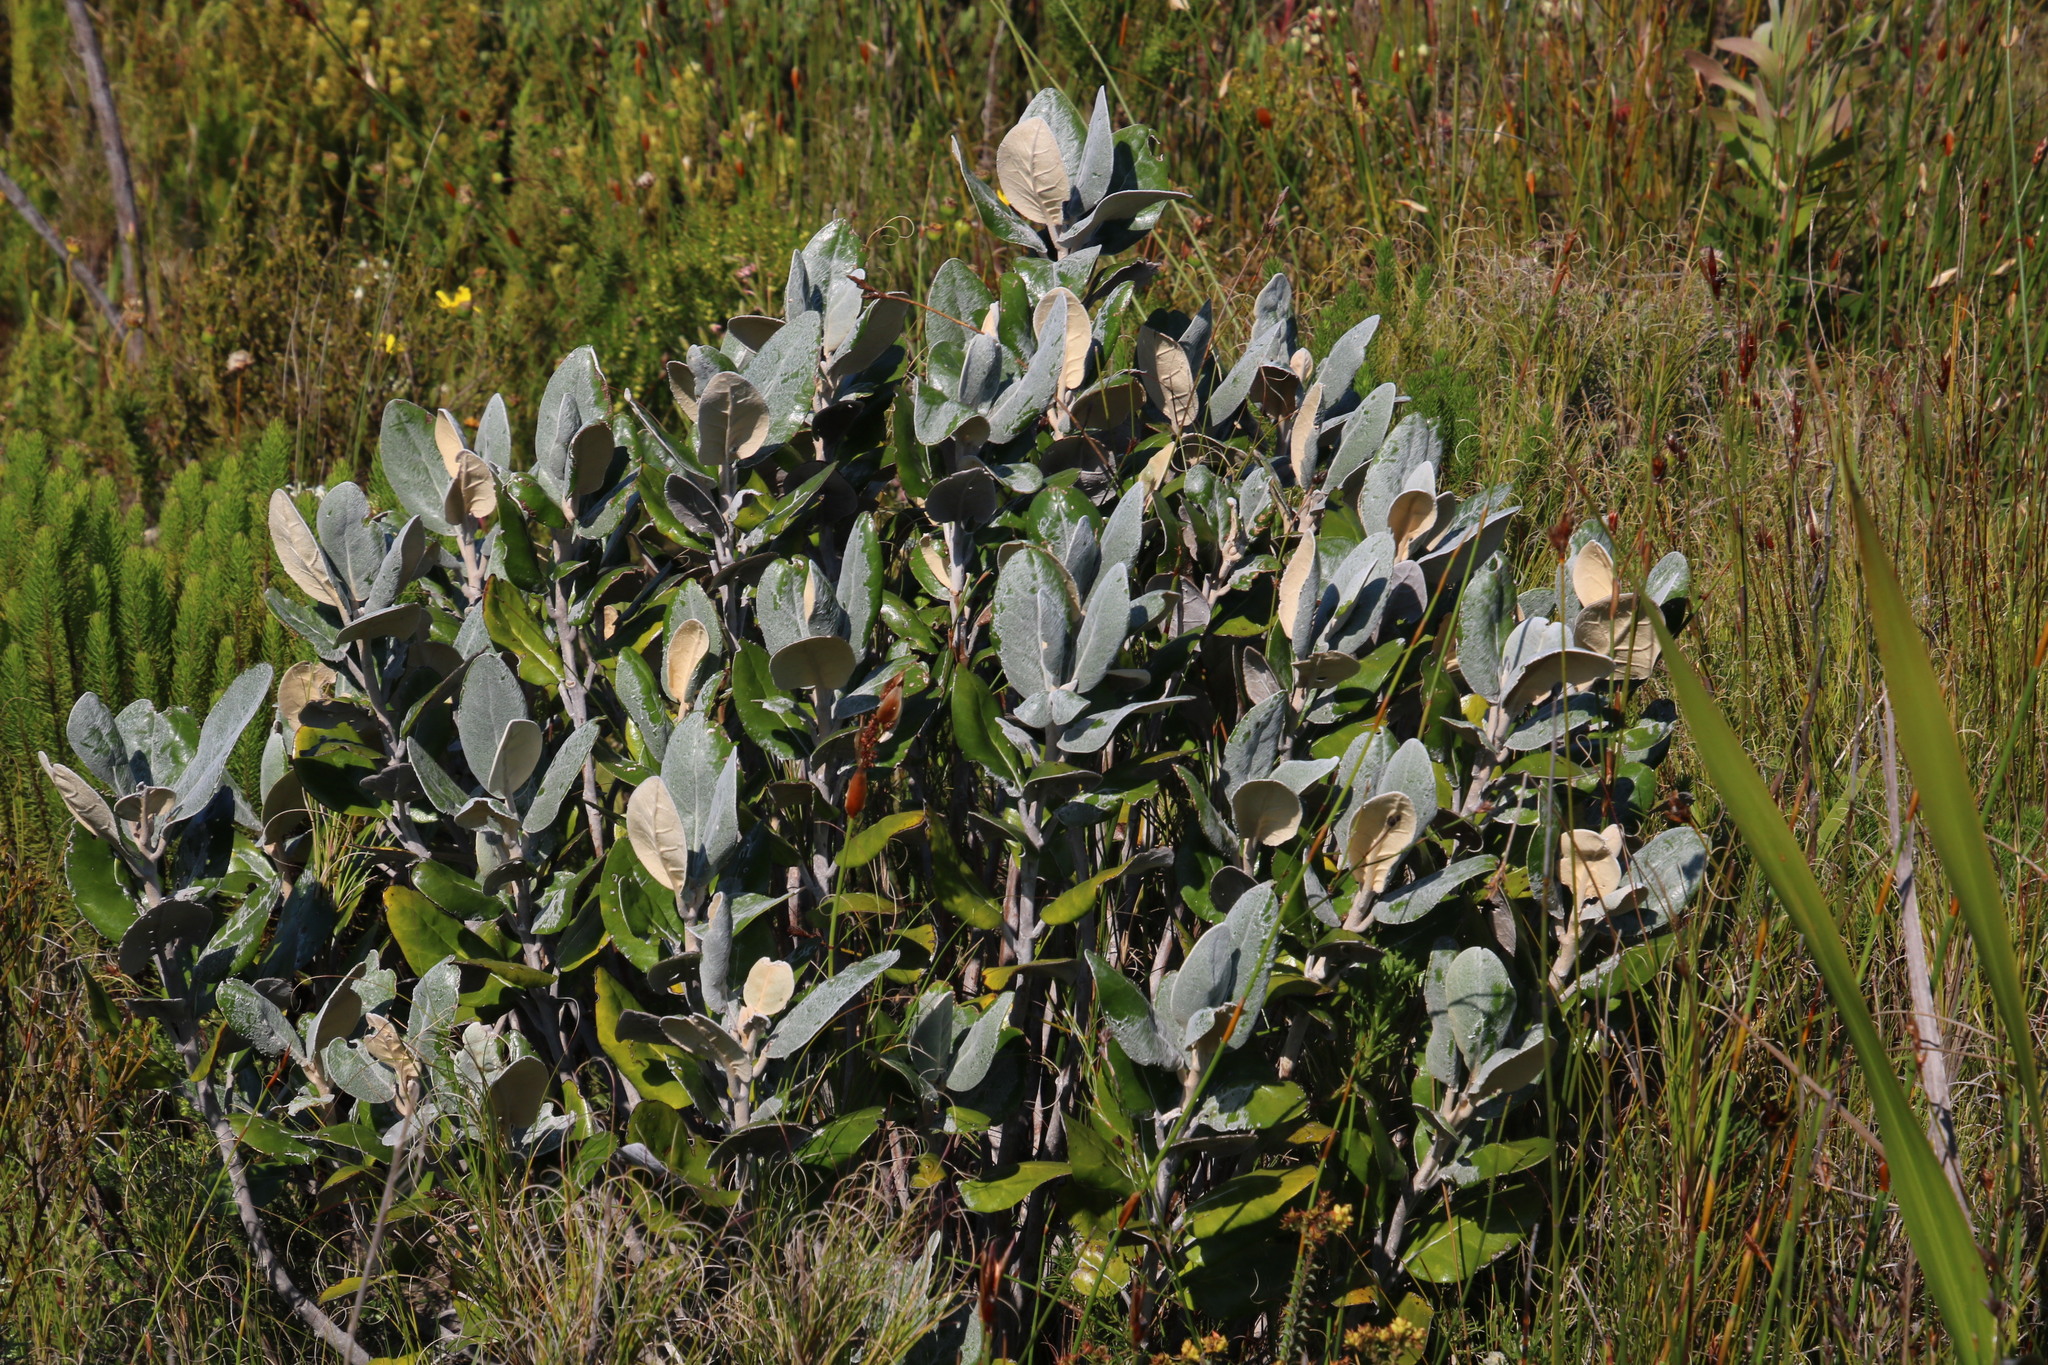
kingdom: Plantae
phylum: Tracheophyta
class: Magnoliopsida
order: Asterales
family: Asteraceae
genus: Capelio
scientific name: Capelio tabularis
